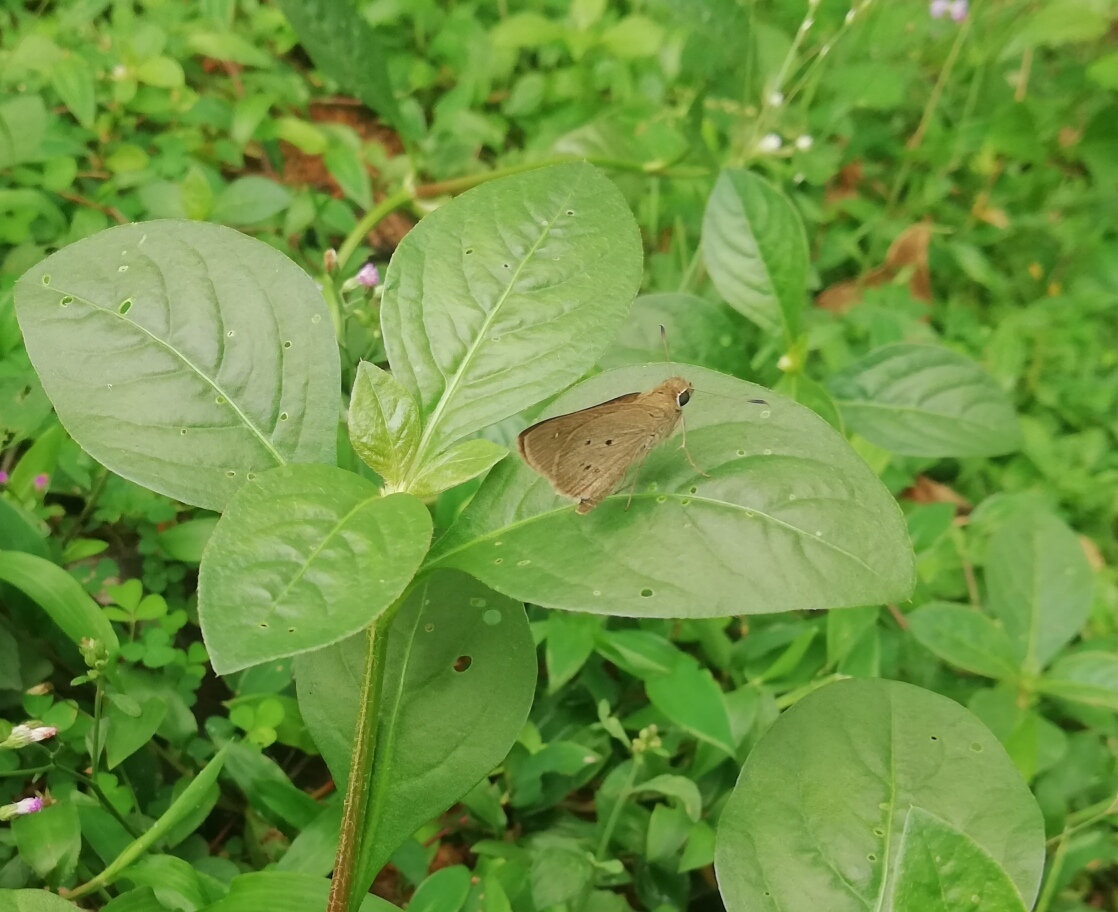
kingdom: Animalia
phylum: Arthropoda
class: Insecta
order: Lepidoptera
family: Hesperiidae
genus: Suastus
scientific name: Suastus gremius
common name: Indian palm bob
